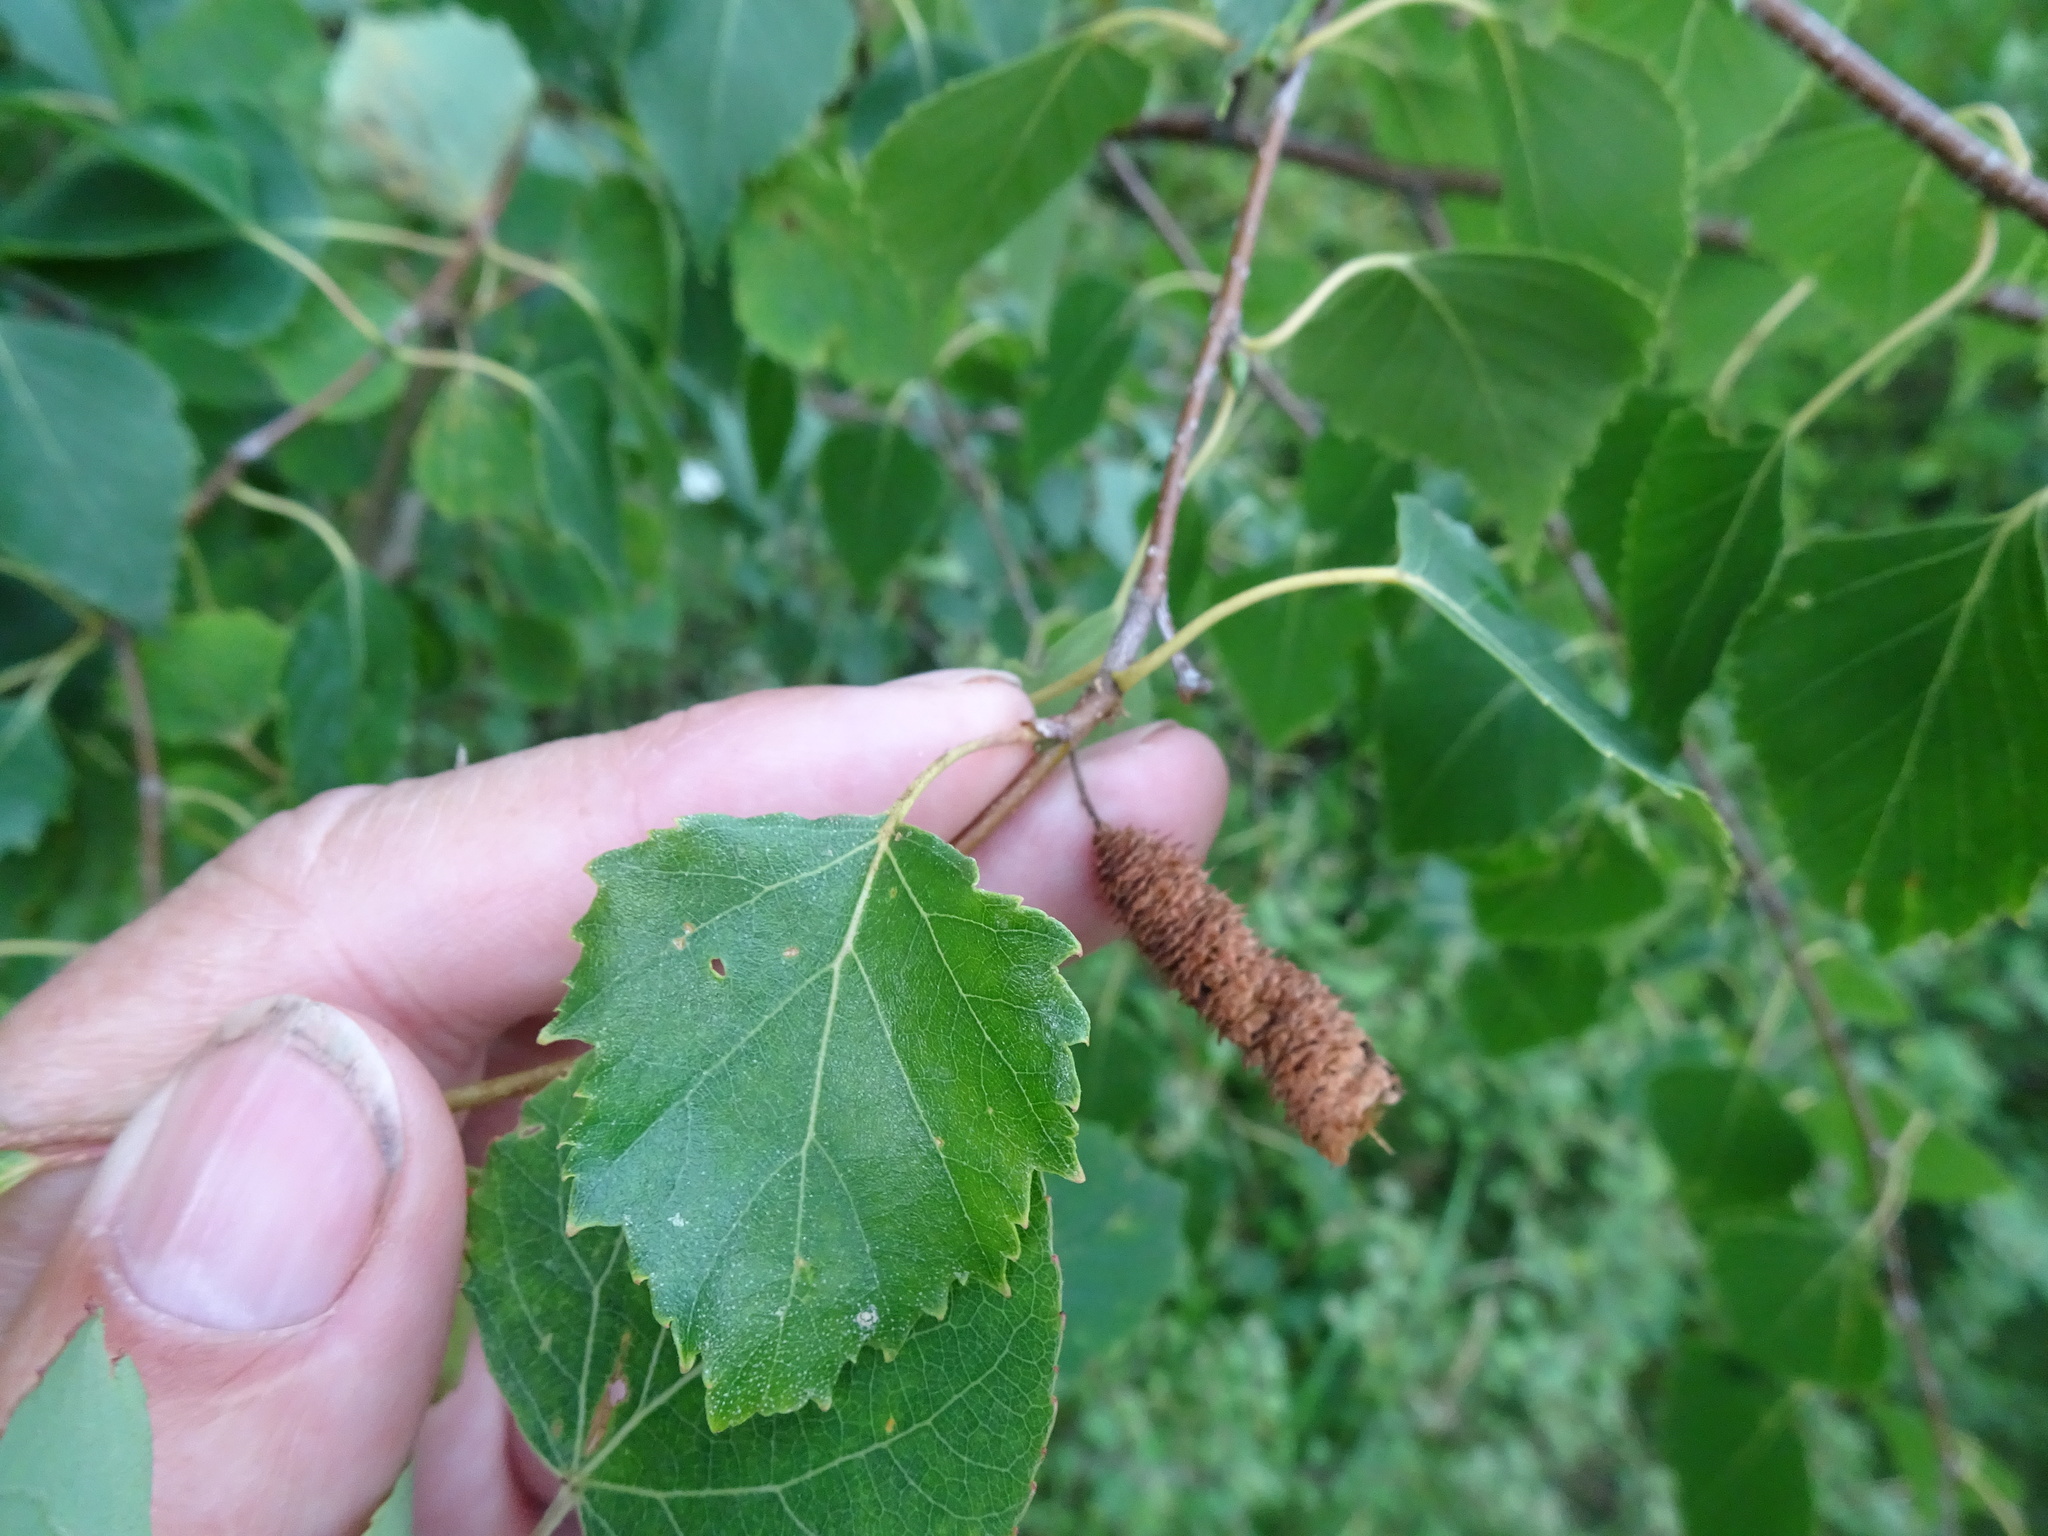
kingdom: Plantae
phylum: Tracheophyta
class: Magnoliopsida
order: Fagales
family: Betulaceae
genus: Betula
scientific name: Betula pendula
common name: Silver birch
